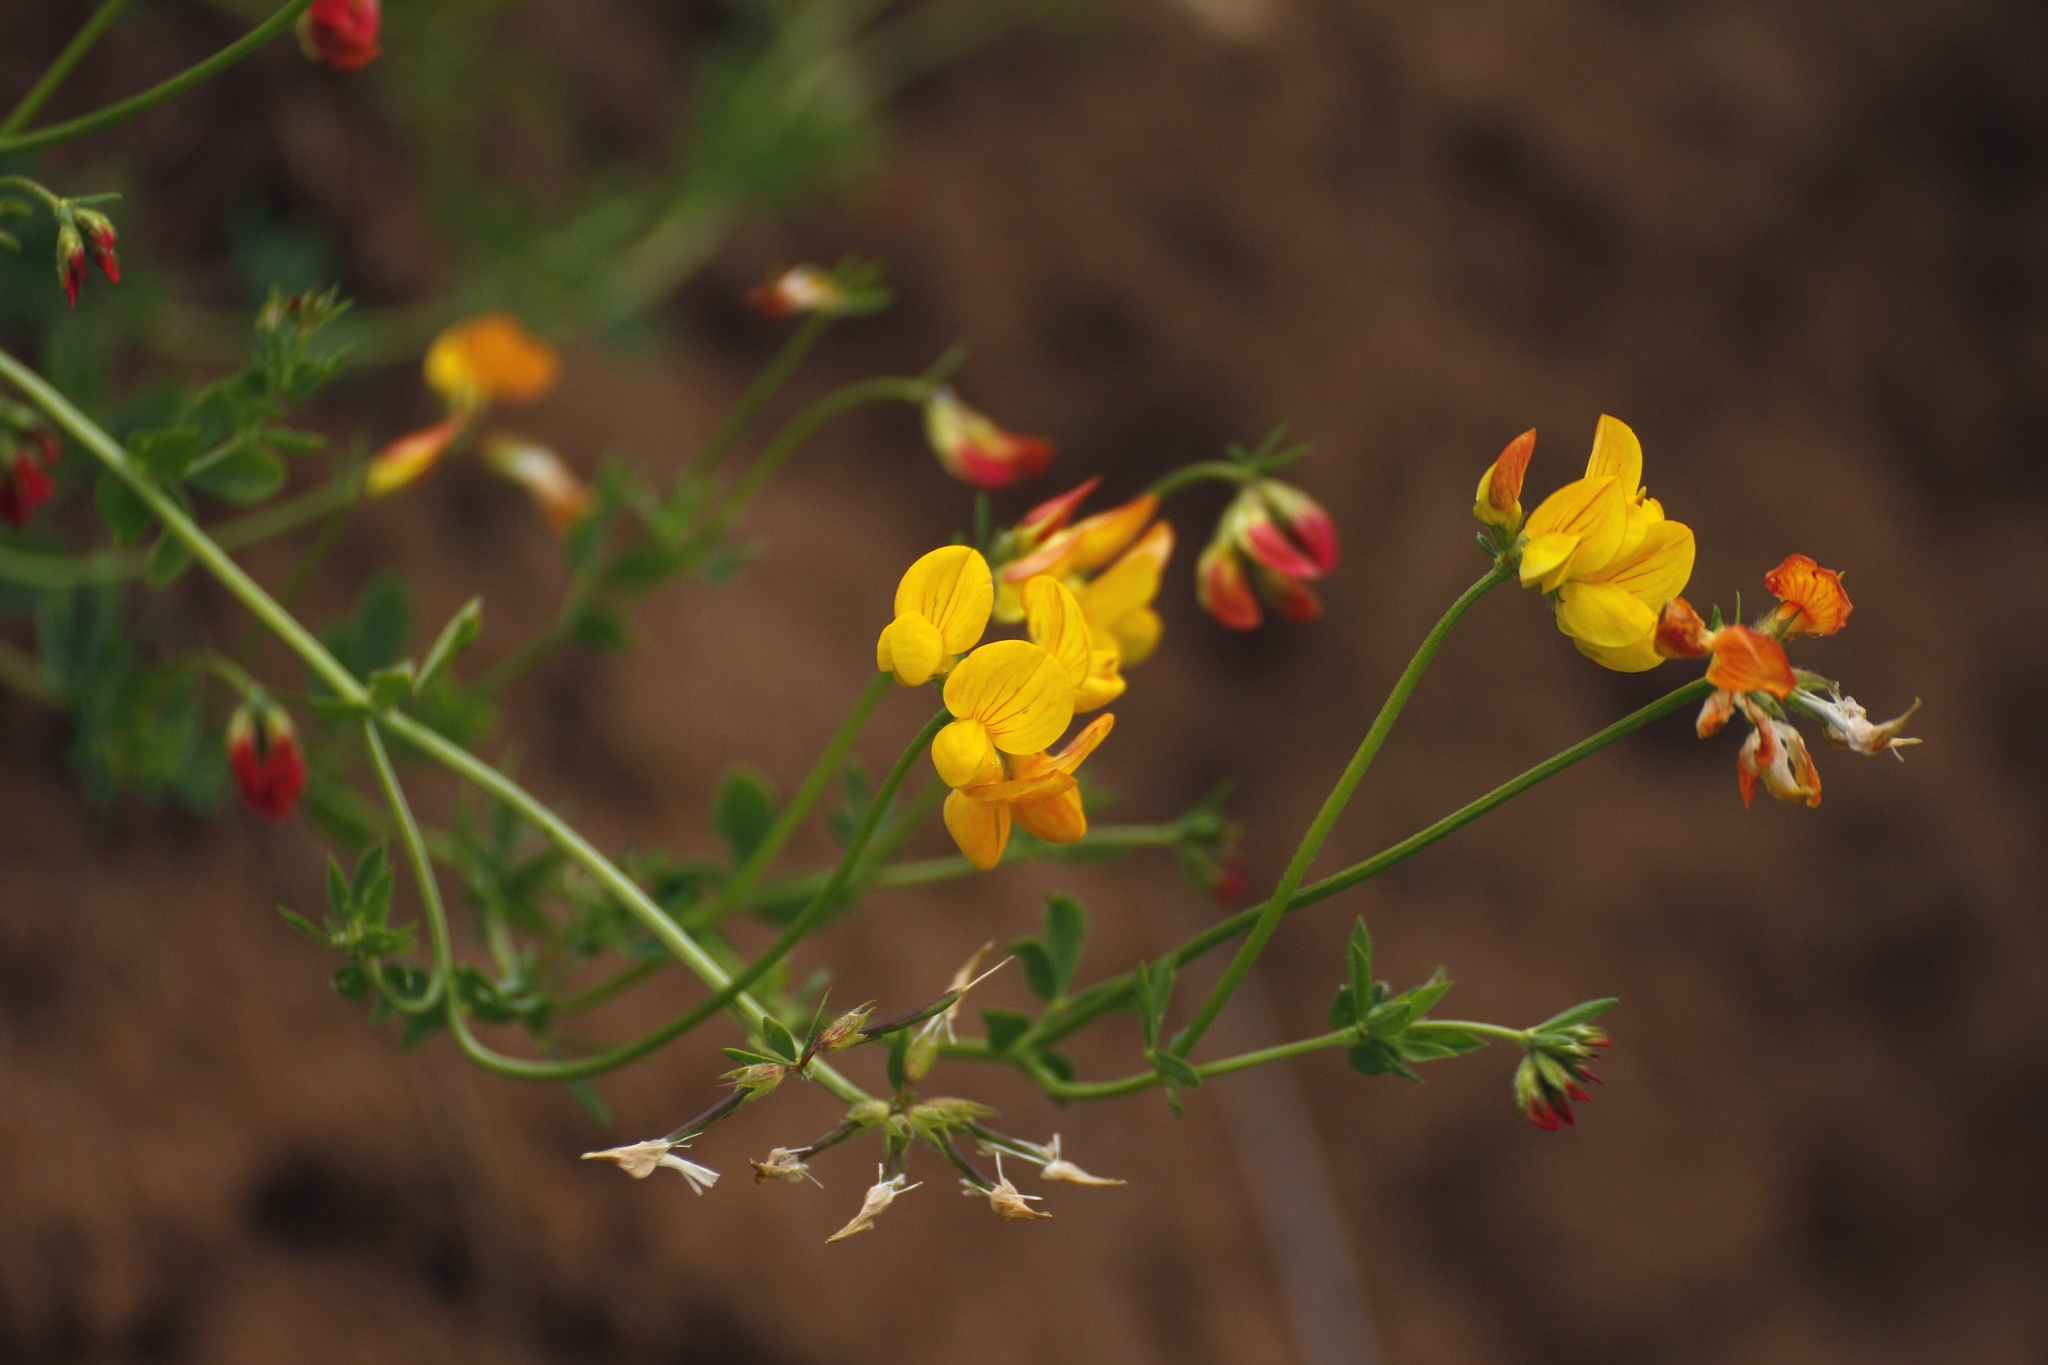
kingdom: Plantae
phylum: Tracheophyta
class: Magnoliopsida
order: Fabales
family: Fabaceae
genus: Lotus
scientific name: Lotus corniculatus
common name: Common bird's-foot-trefoil
